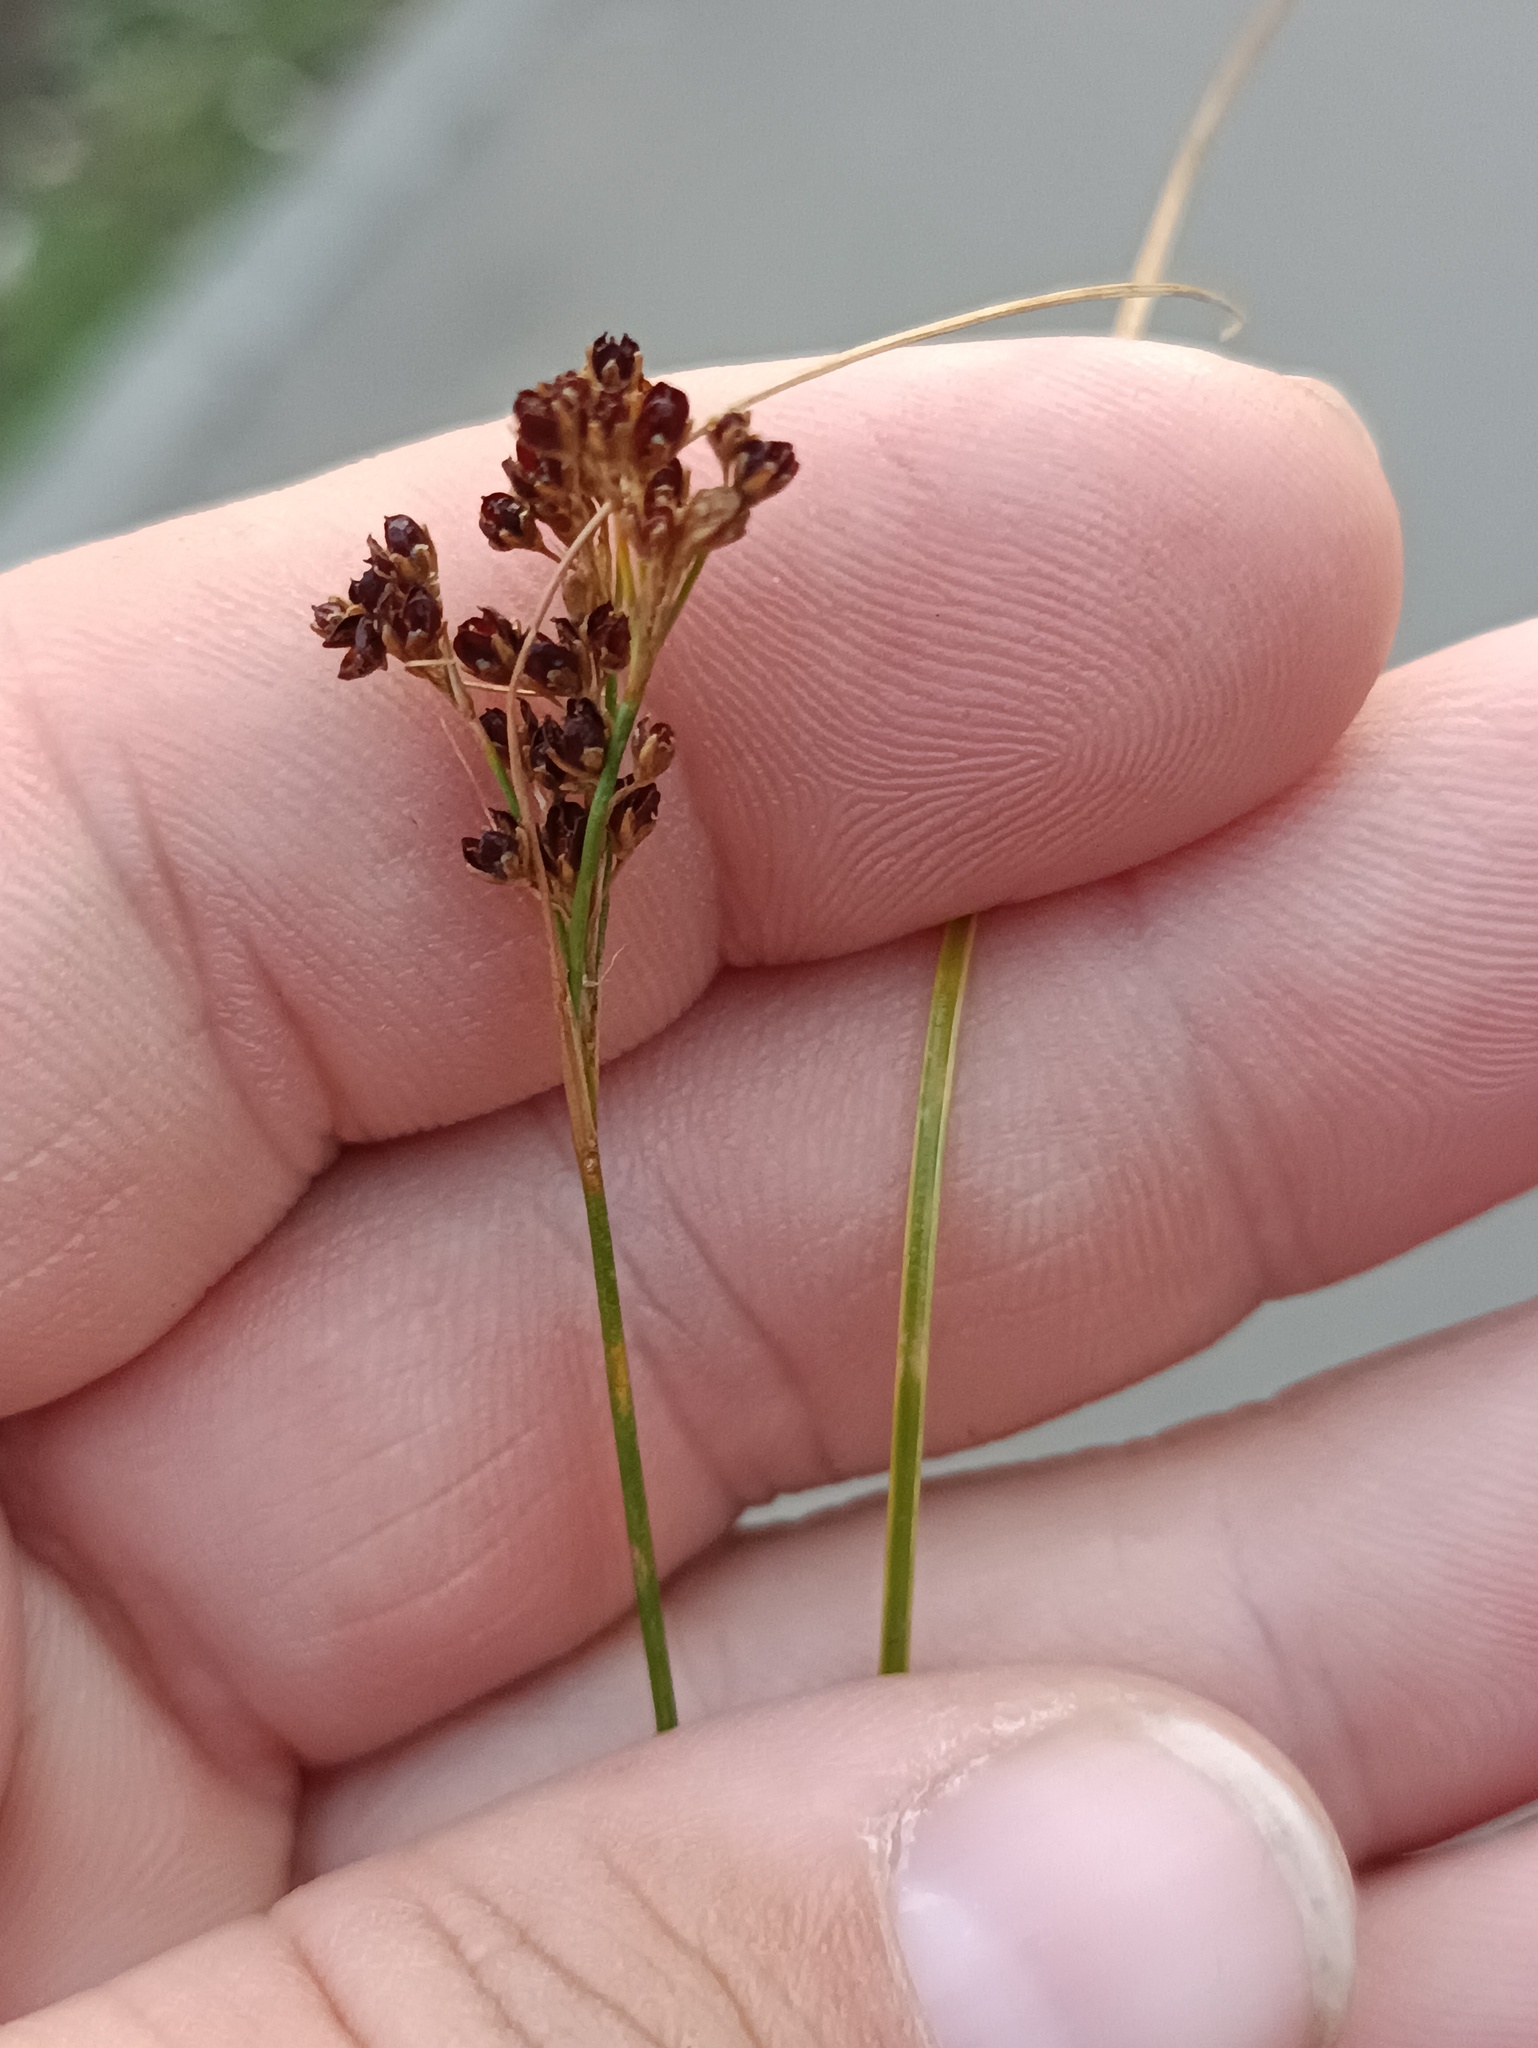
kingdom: Plantae
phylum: Tracheophyta
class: Liliopsida
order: Poales
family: Juncaceae
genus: Juncus
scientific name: Juncus compressus
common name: Round-fruited rush
